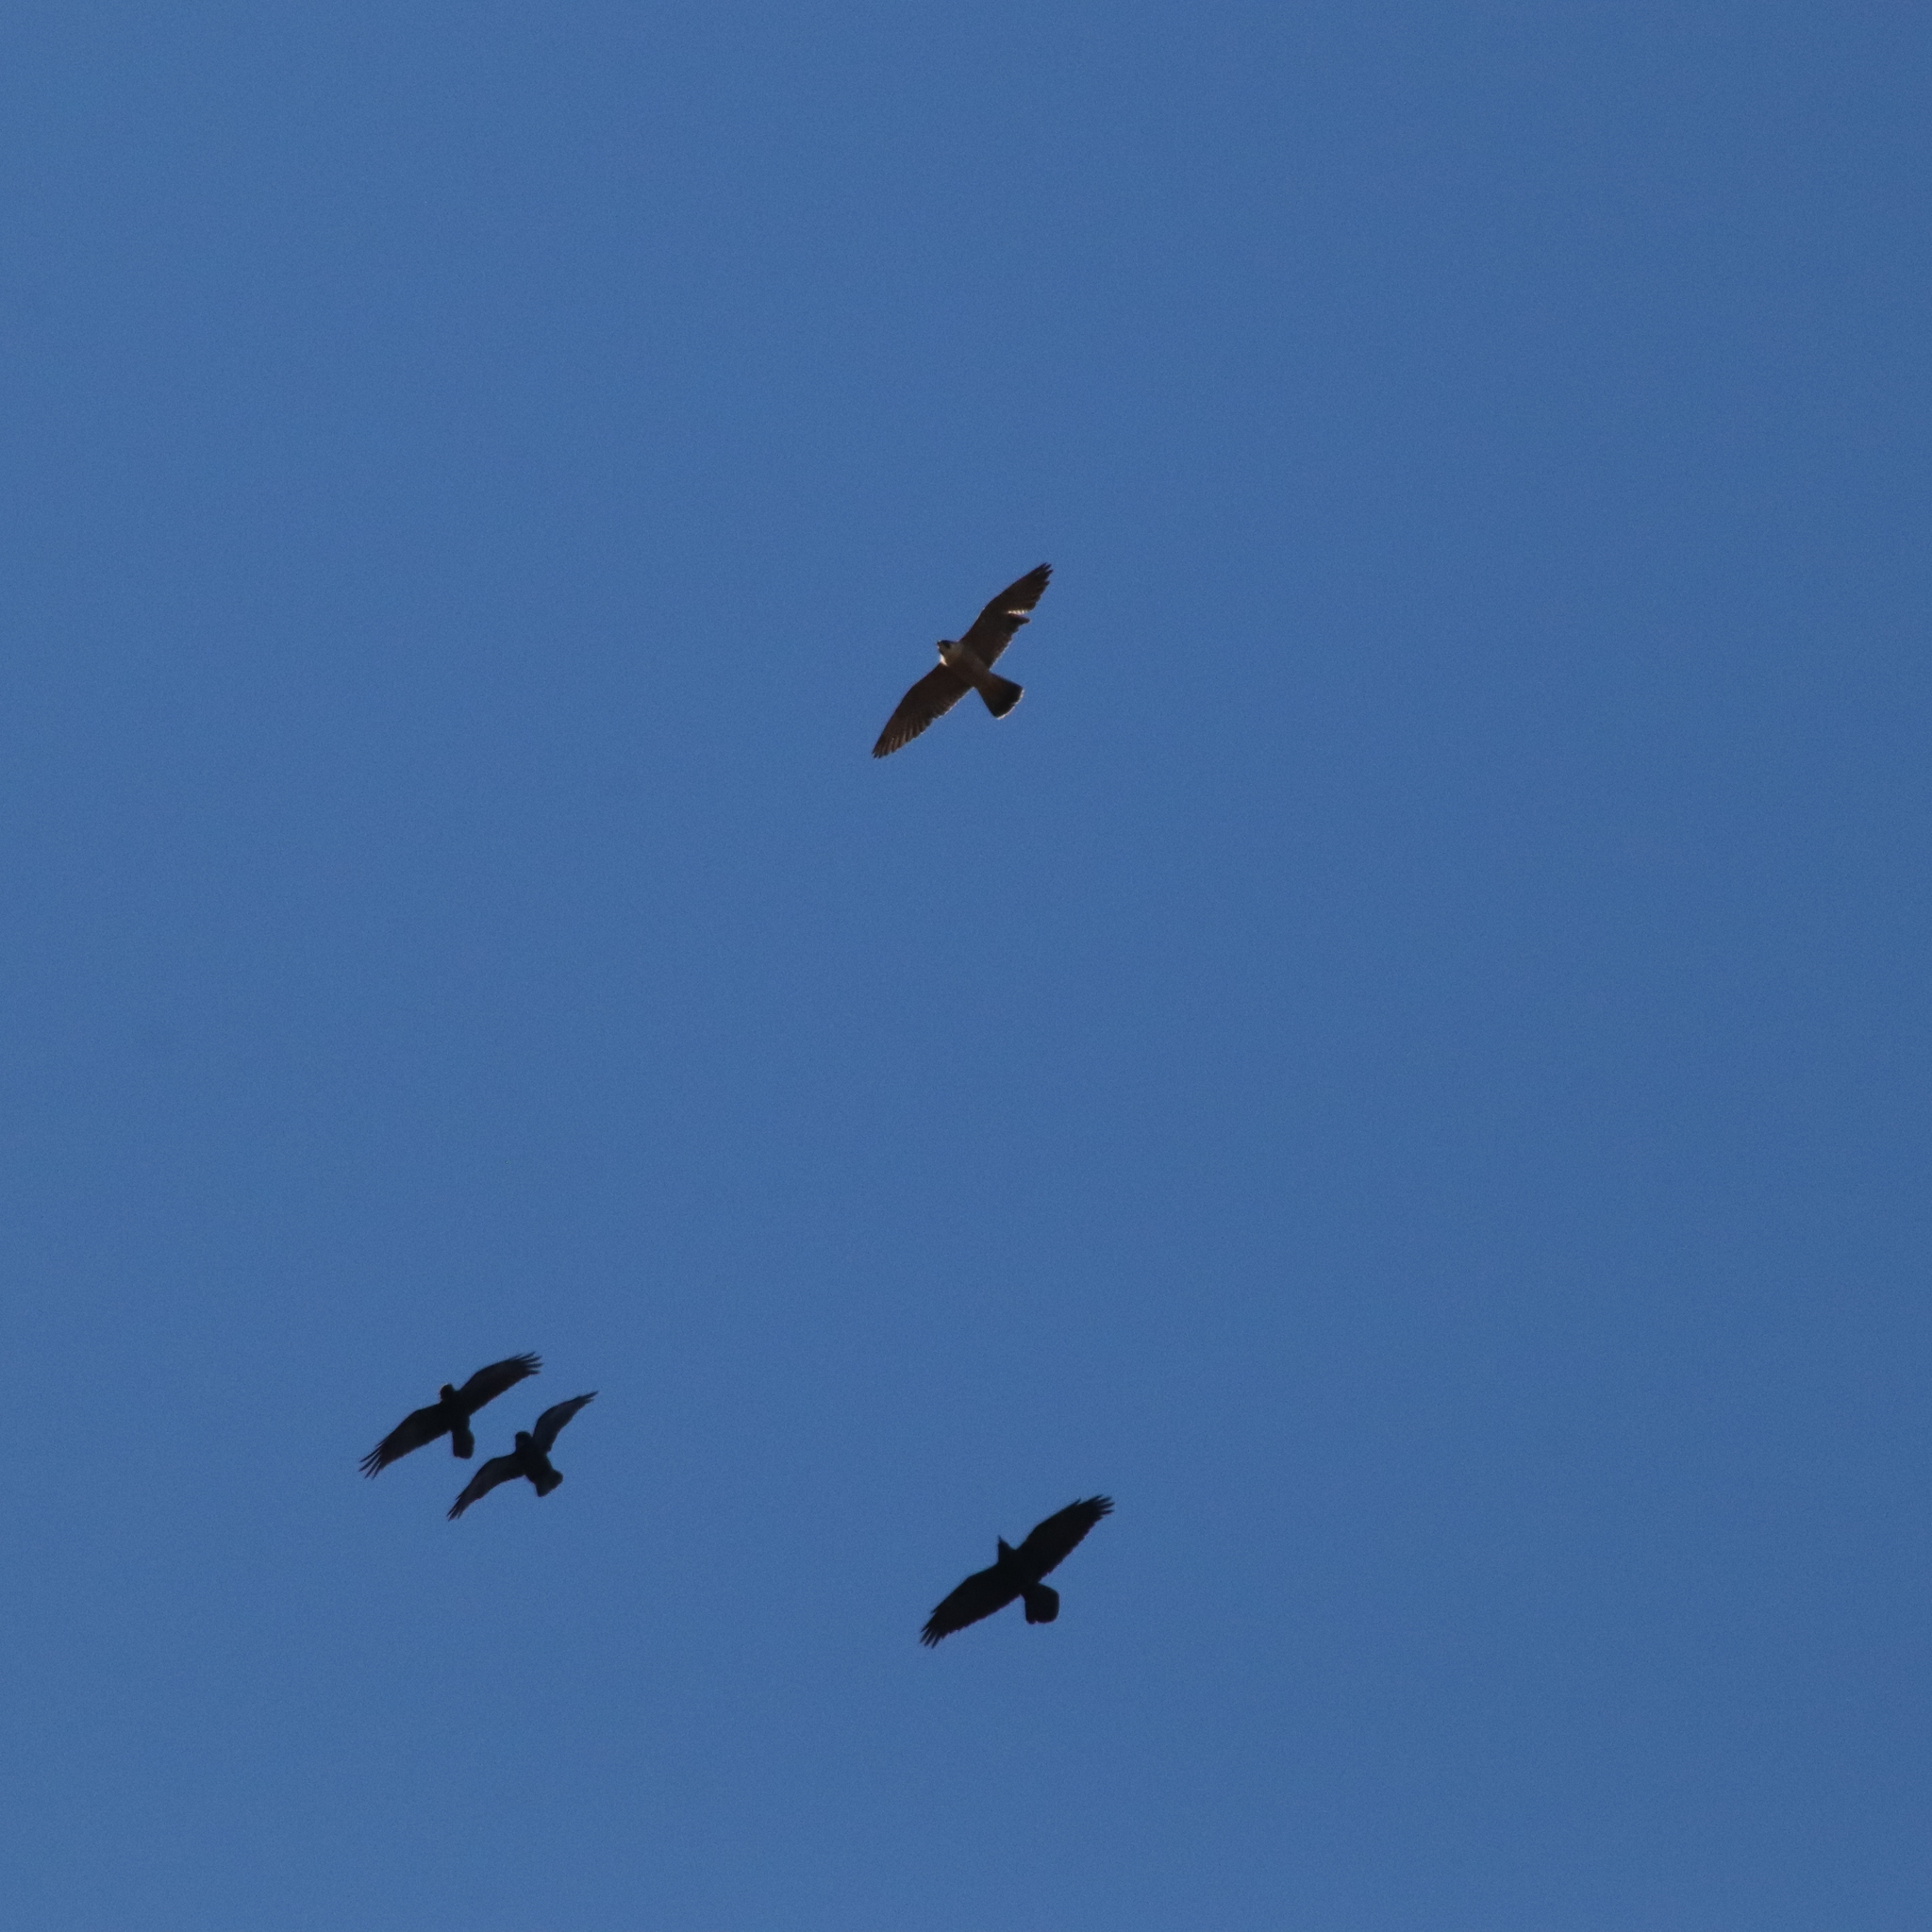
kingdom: Animalia
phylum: Chordata
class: Aves
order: Passeriformes
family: Corvidae
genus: Corvus
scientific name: Corvus corax
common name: Common raven
